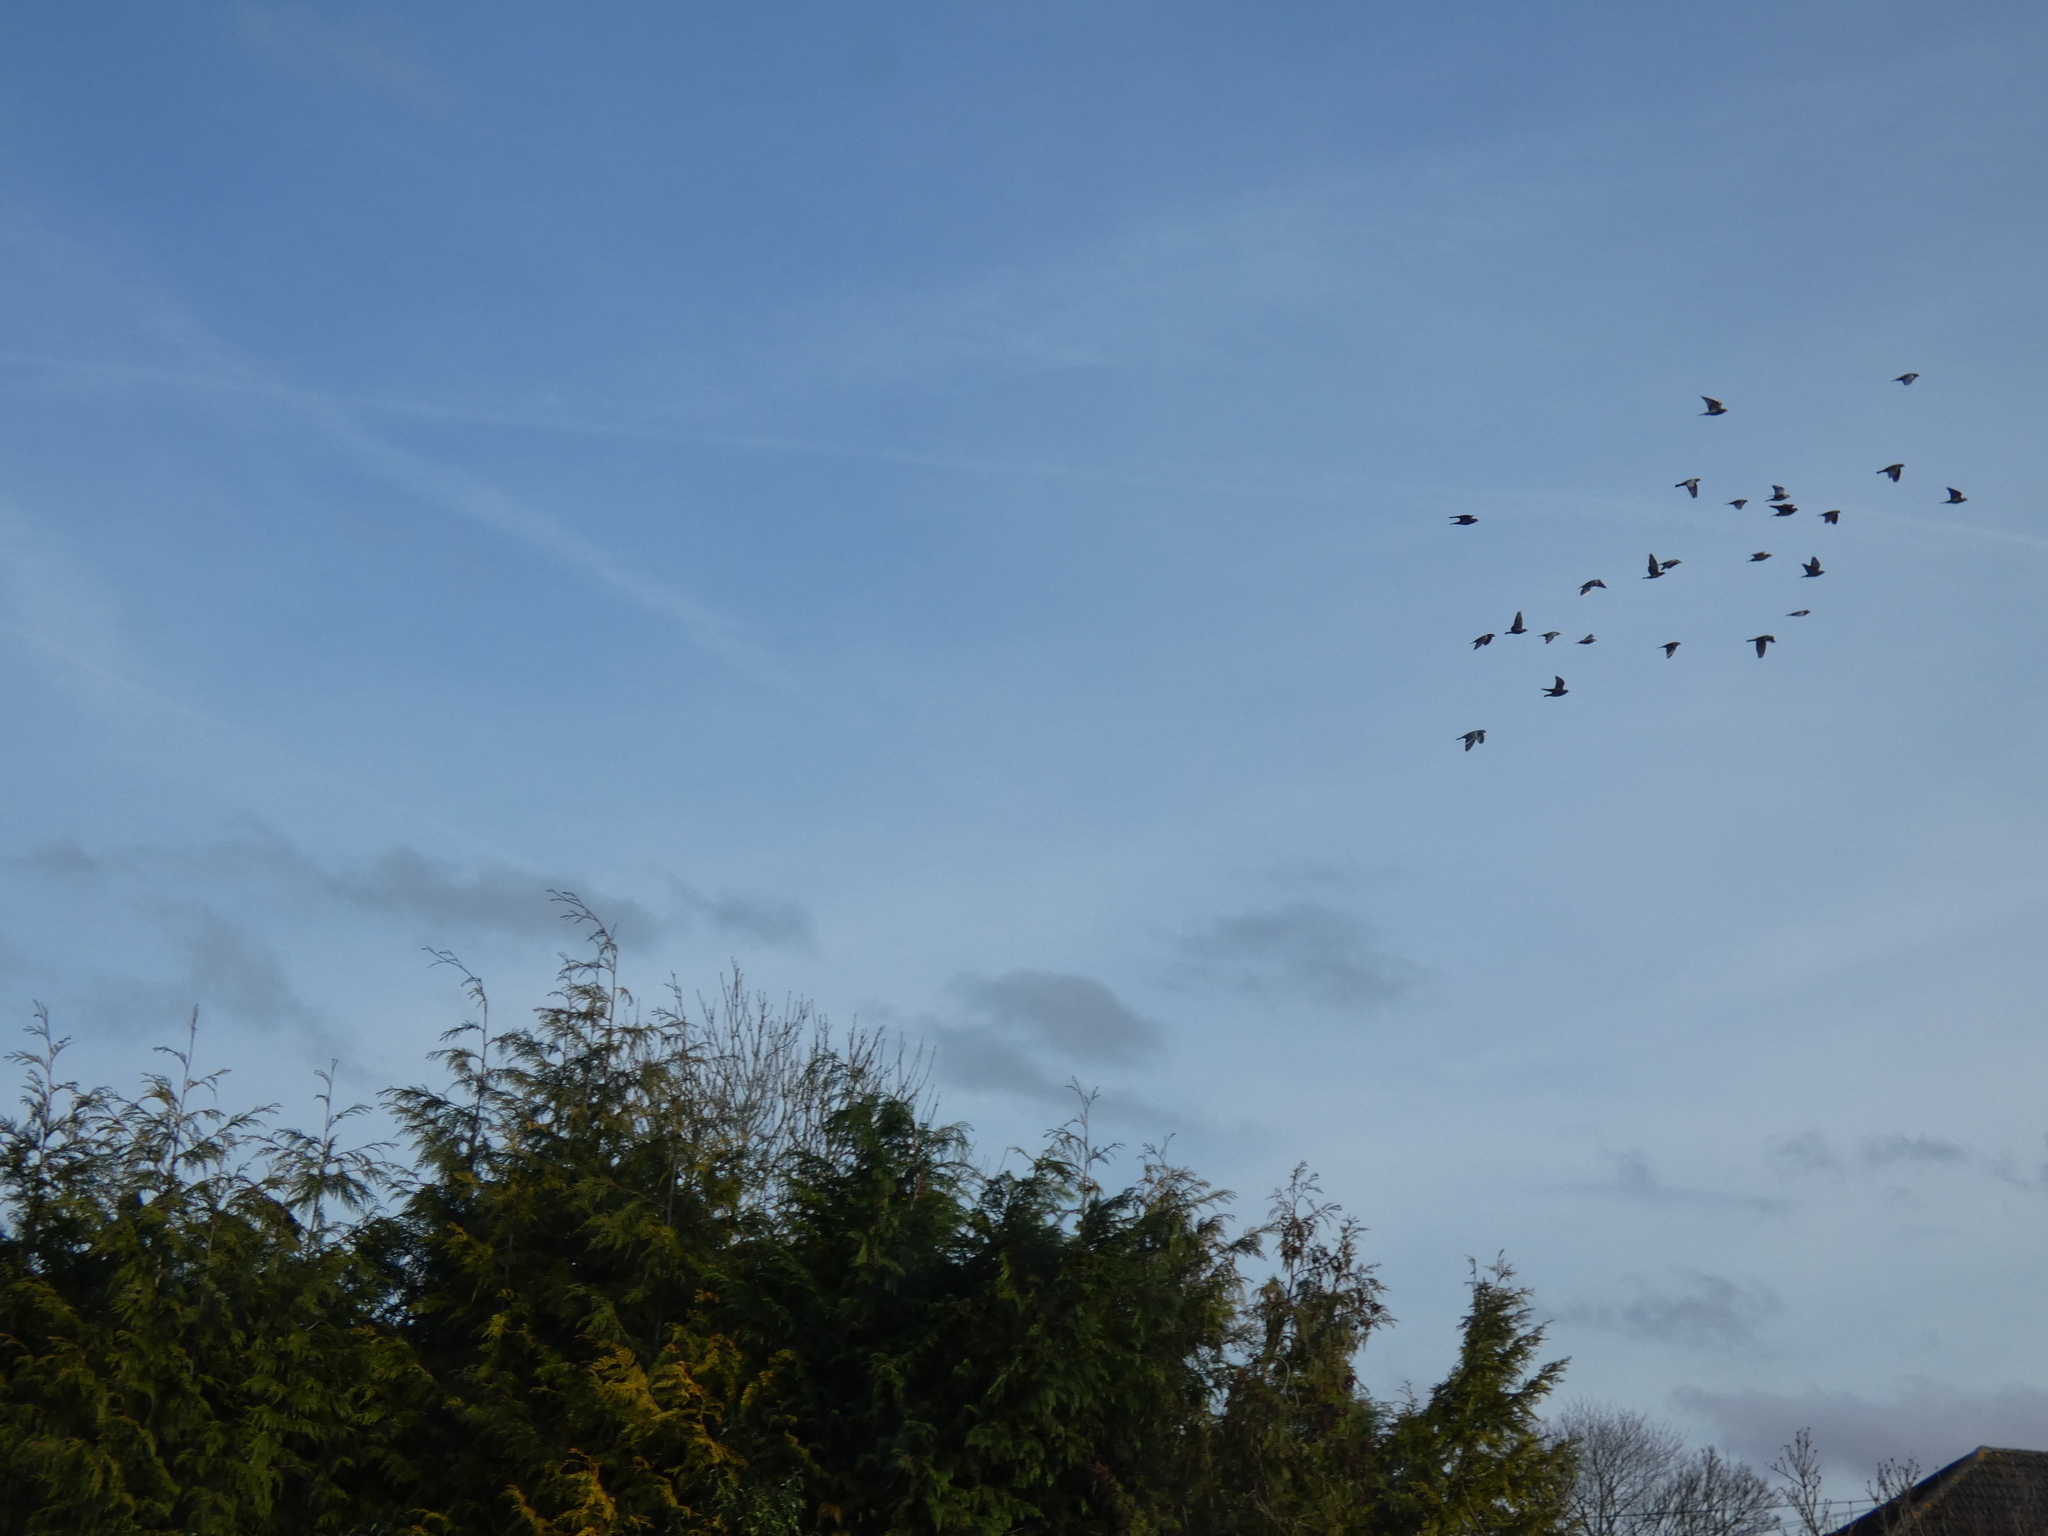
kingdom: Animalia
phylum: Chordata
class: Aves
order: Columbiformes
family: Columbidae
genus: Columba
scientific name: Columba livia
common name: Rock pigeon
